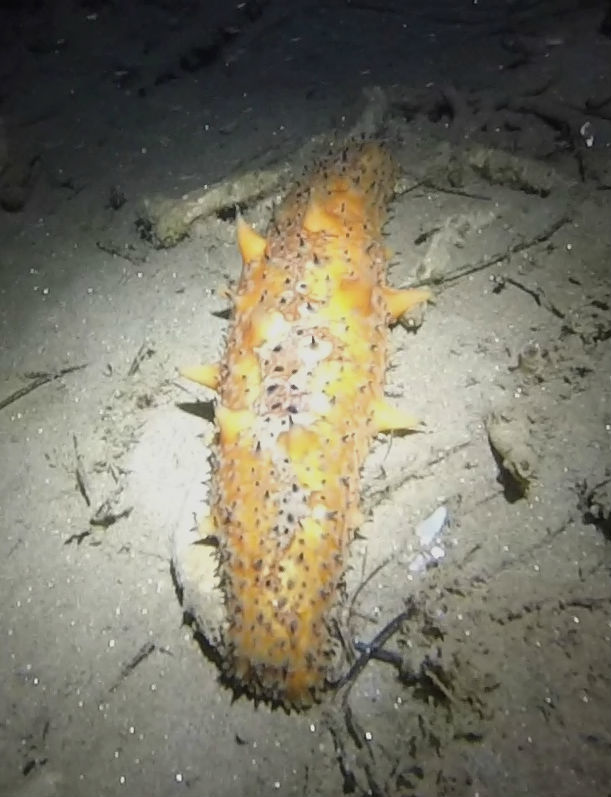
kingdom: Animalia
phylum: Echinodermata
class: Holothuroidea
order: Synallactida
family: Stichopodidae
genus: Apostichopus
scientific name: Apostichopus parvimensis
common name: Warty sea cucumber
